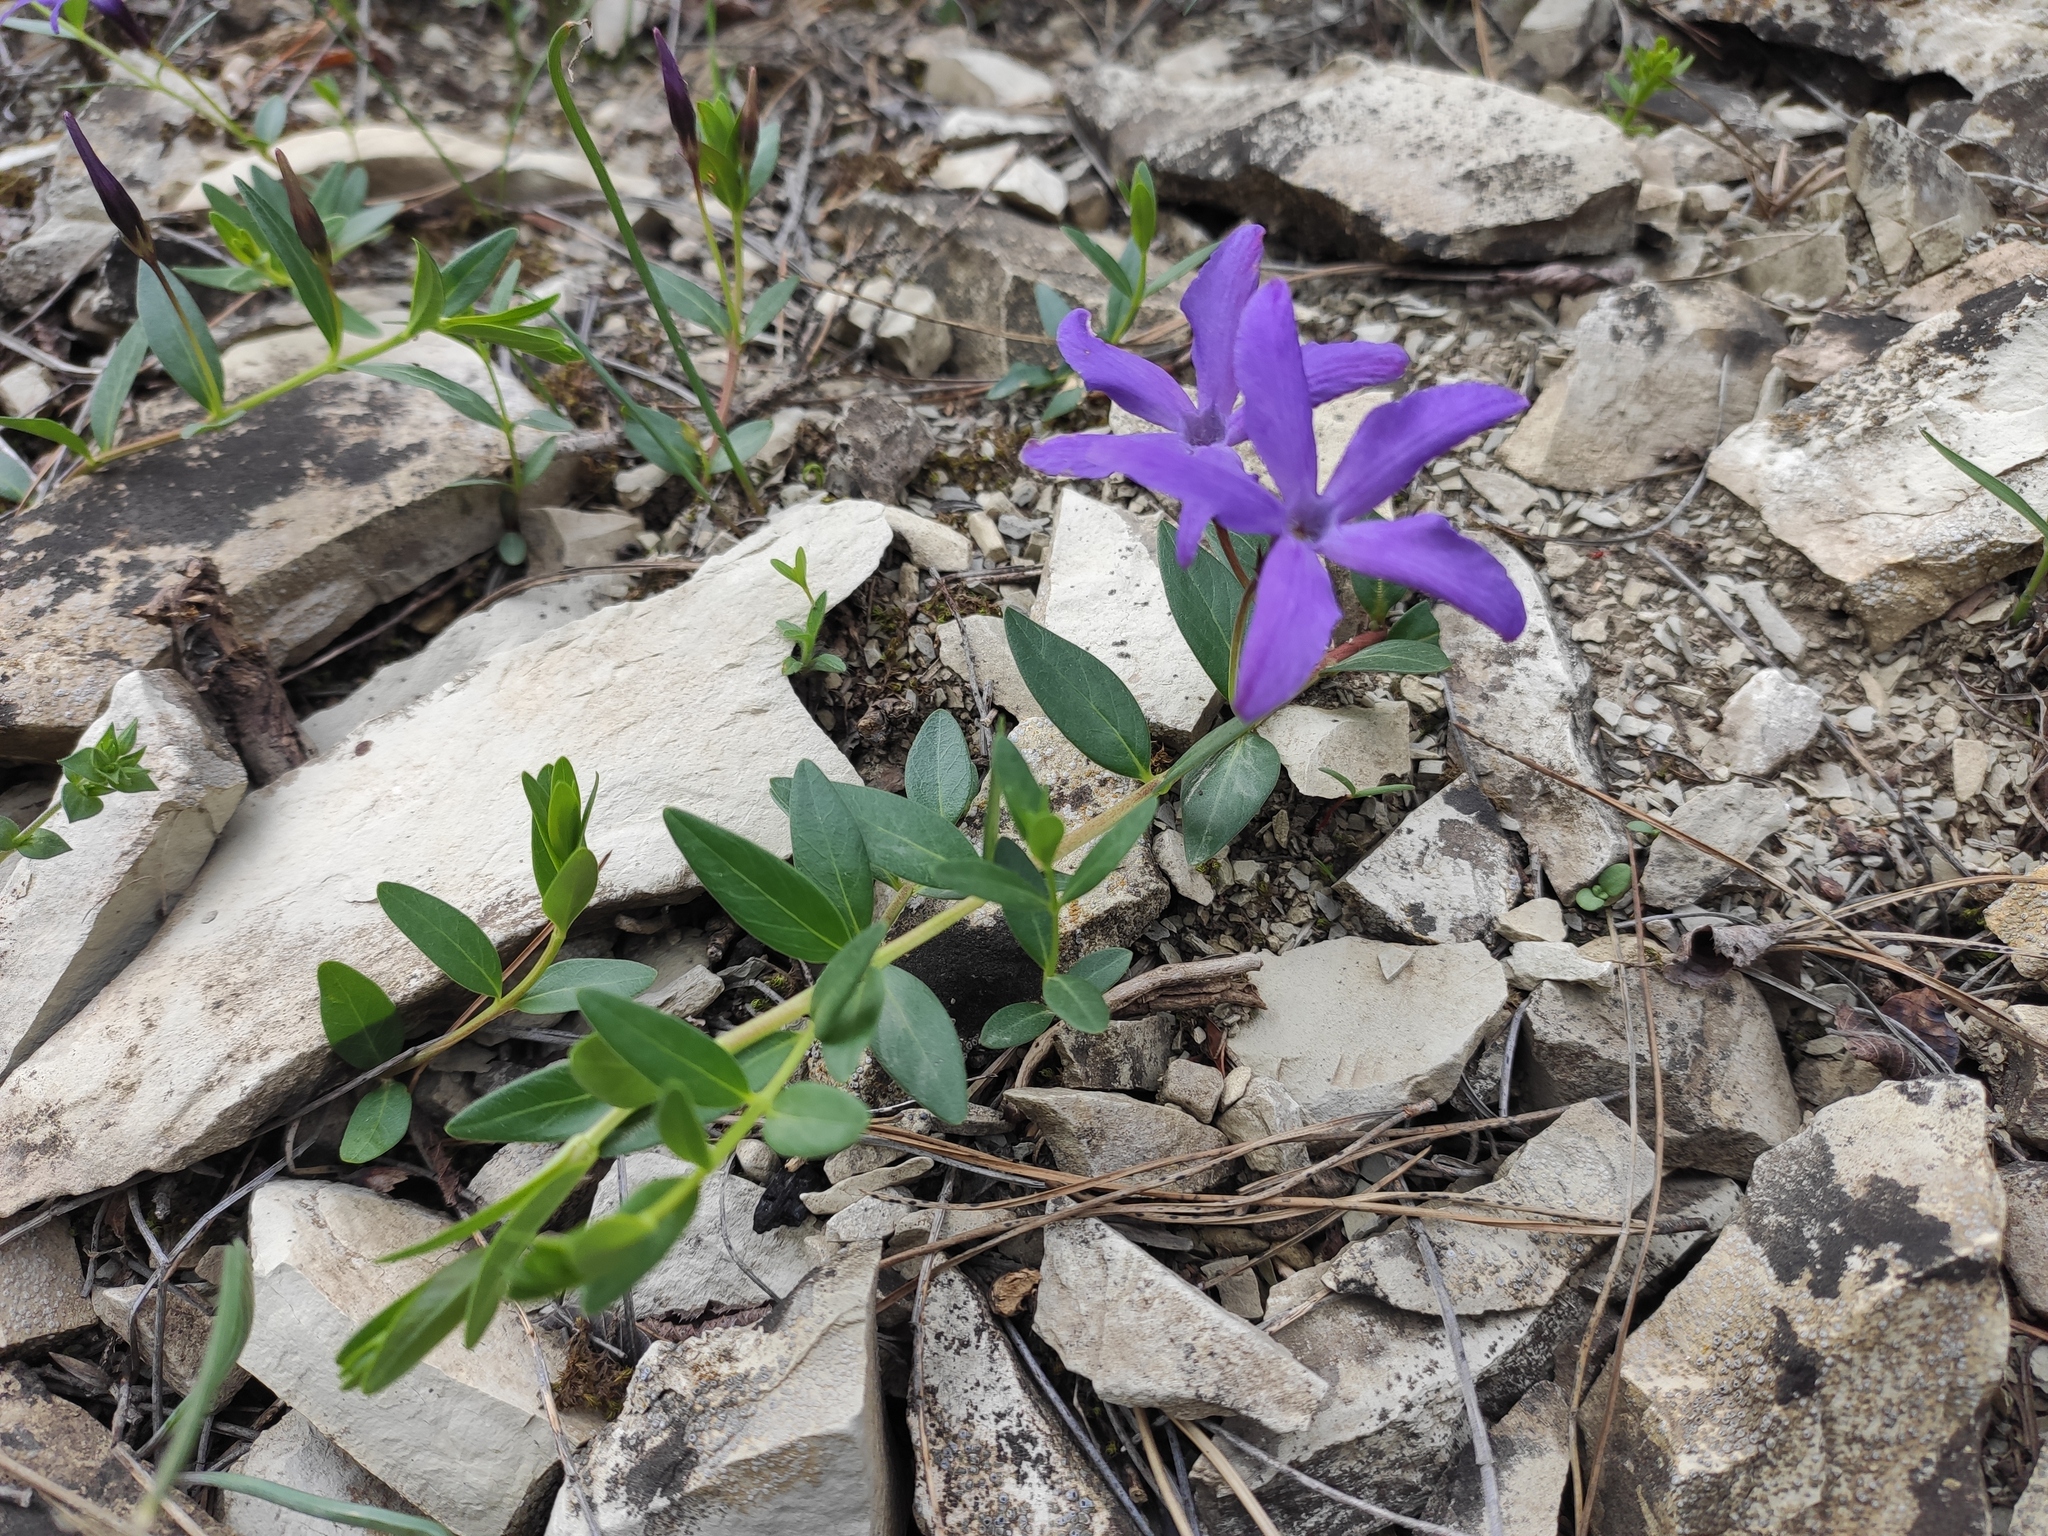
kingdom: Plantae
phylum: Tracheophyta
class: Magnoliopsida
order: Gentianales
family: Apocynaceae
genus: Vinca
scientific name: Vinca herbacea
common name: Herbaceous periwinkle
